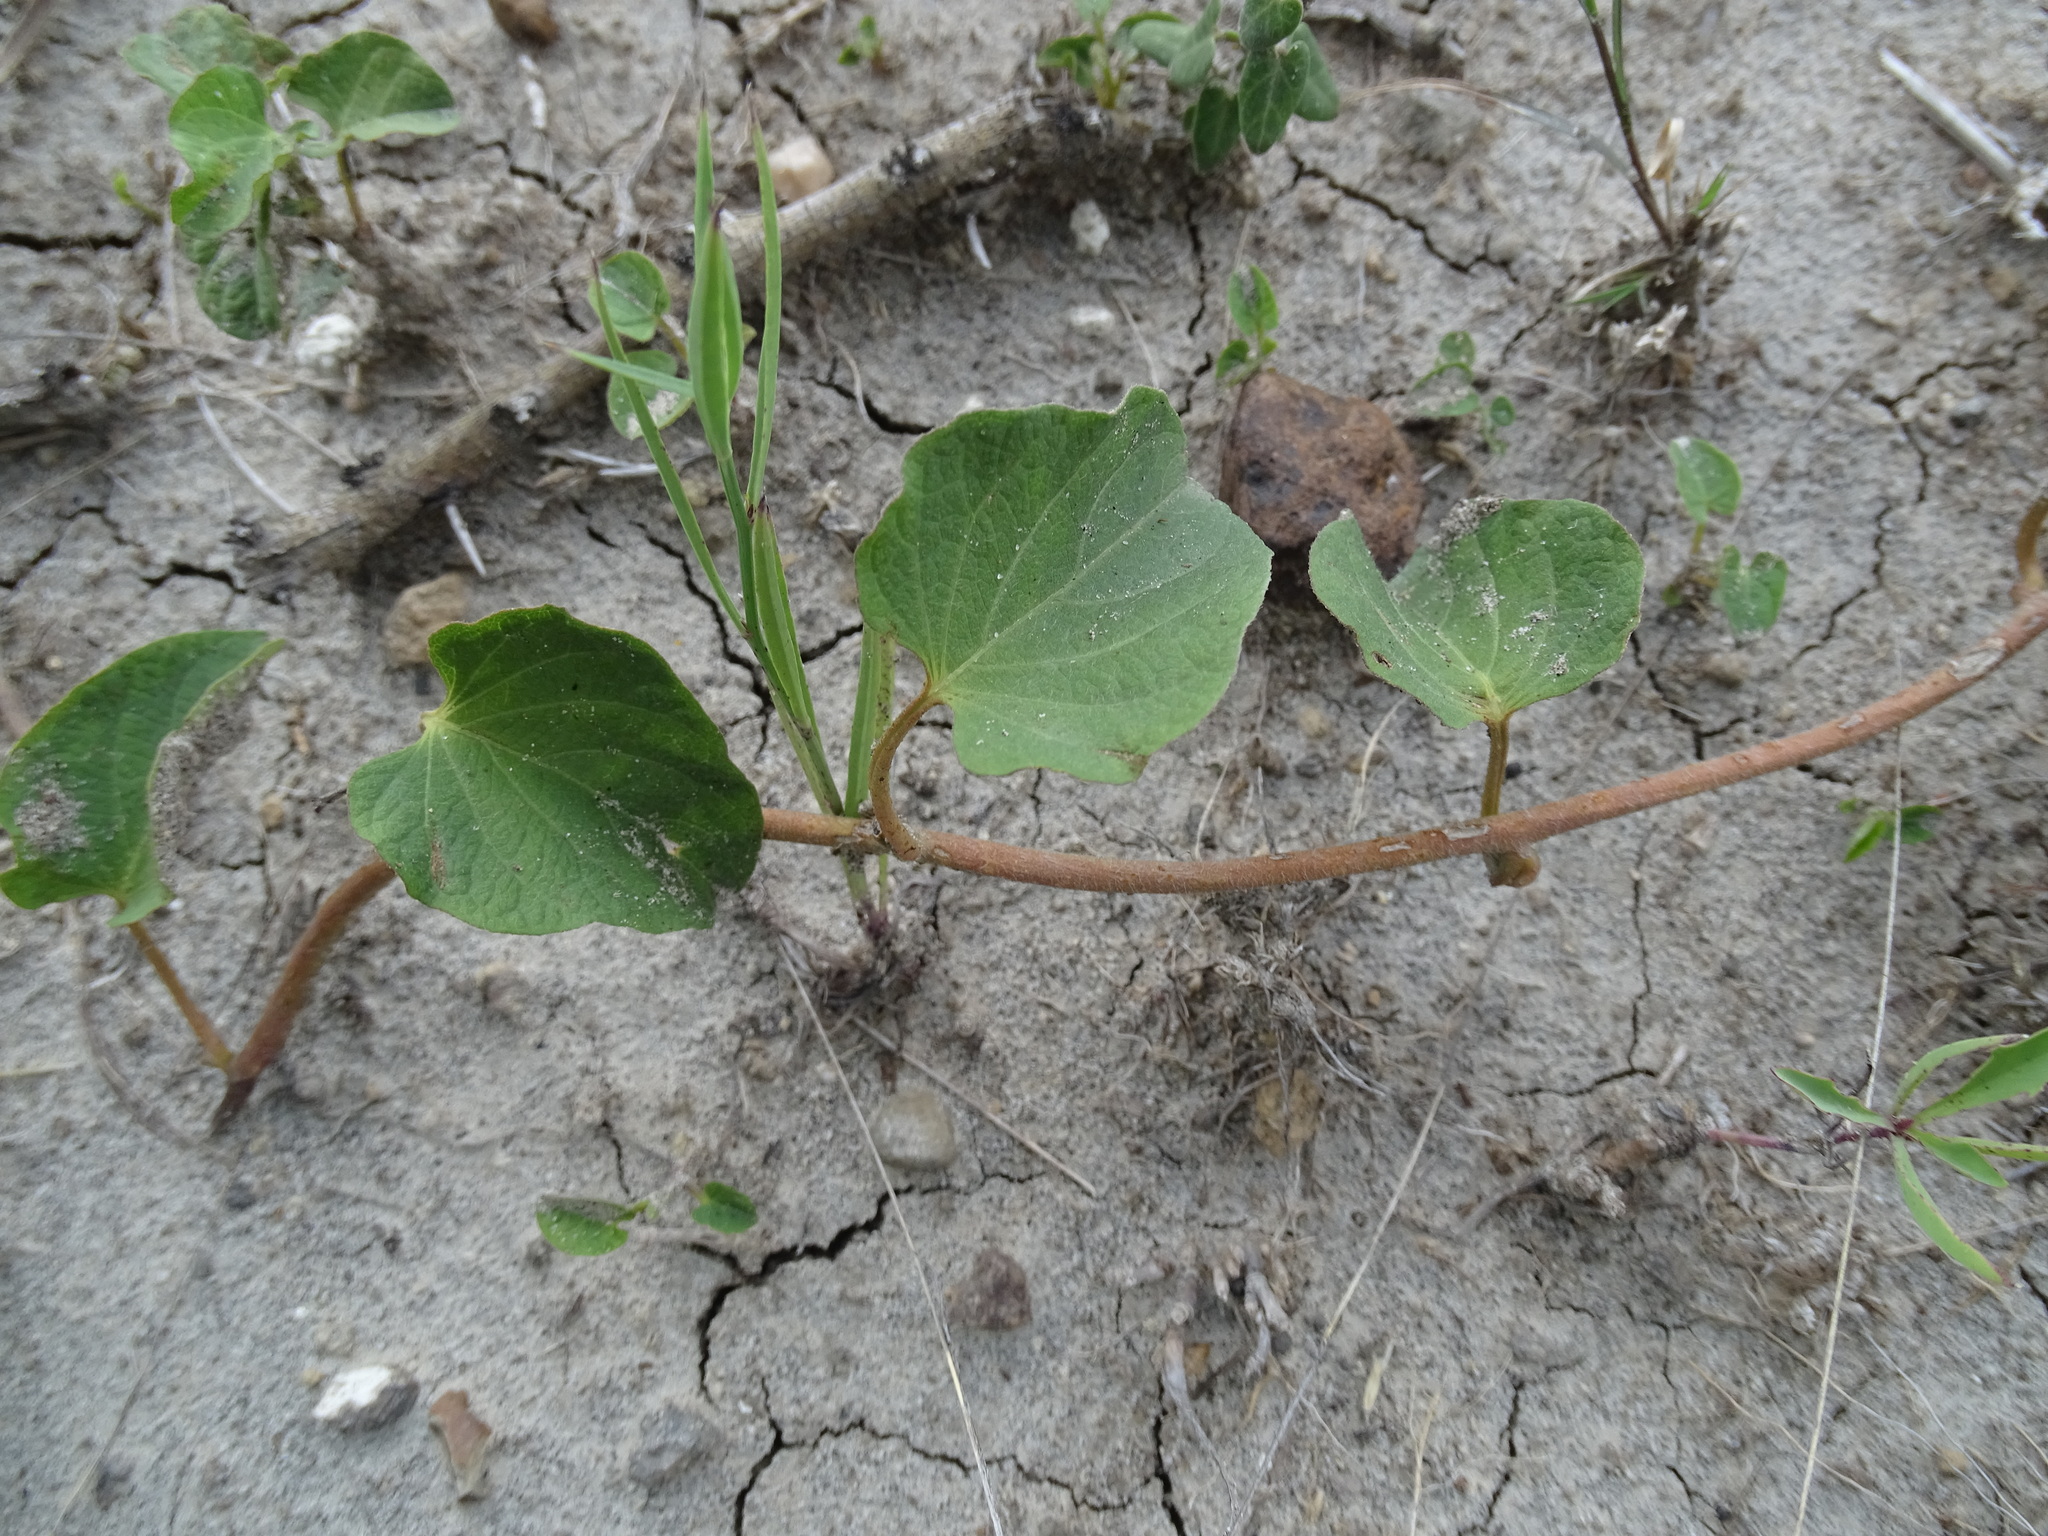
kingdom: Plantae
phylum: Tracheophyta
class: Magnoliopsida
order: Solanales
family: Convolvulaceae
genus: Ipomoea
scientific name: Ipomoea proxima
